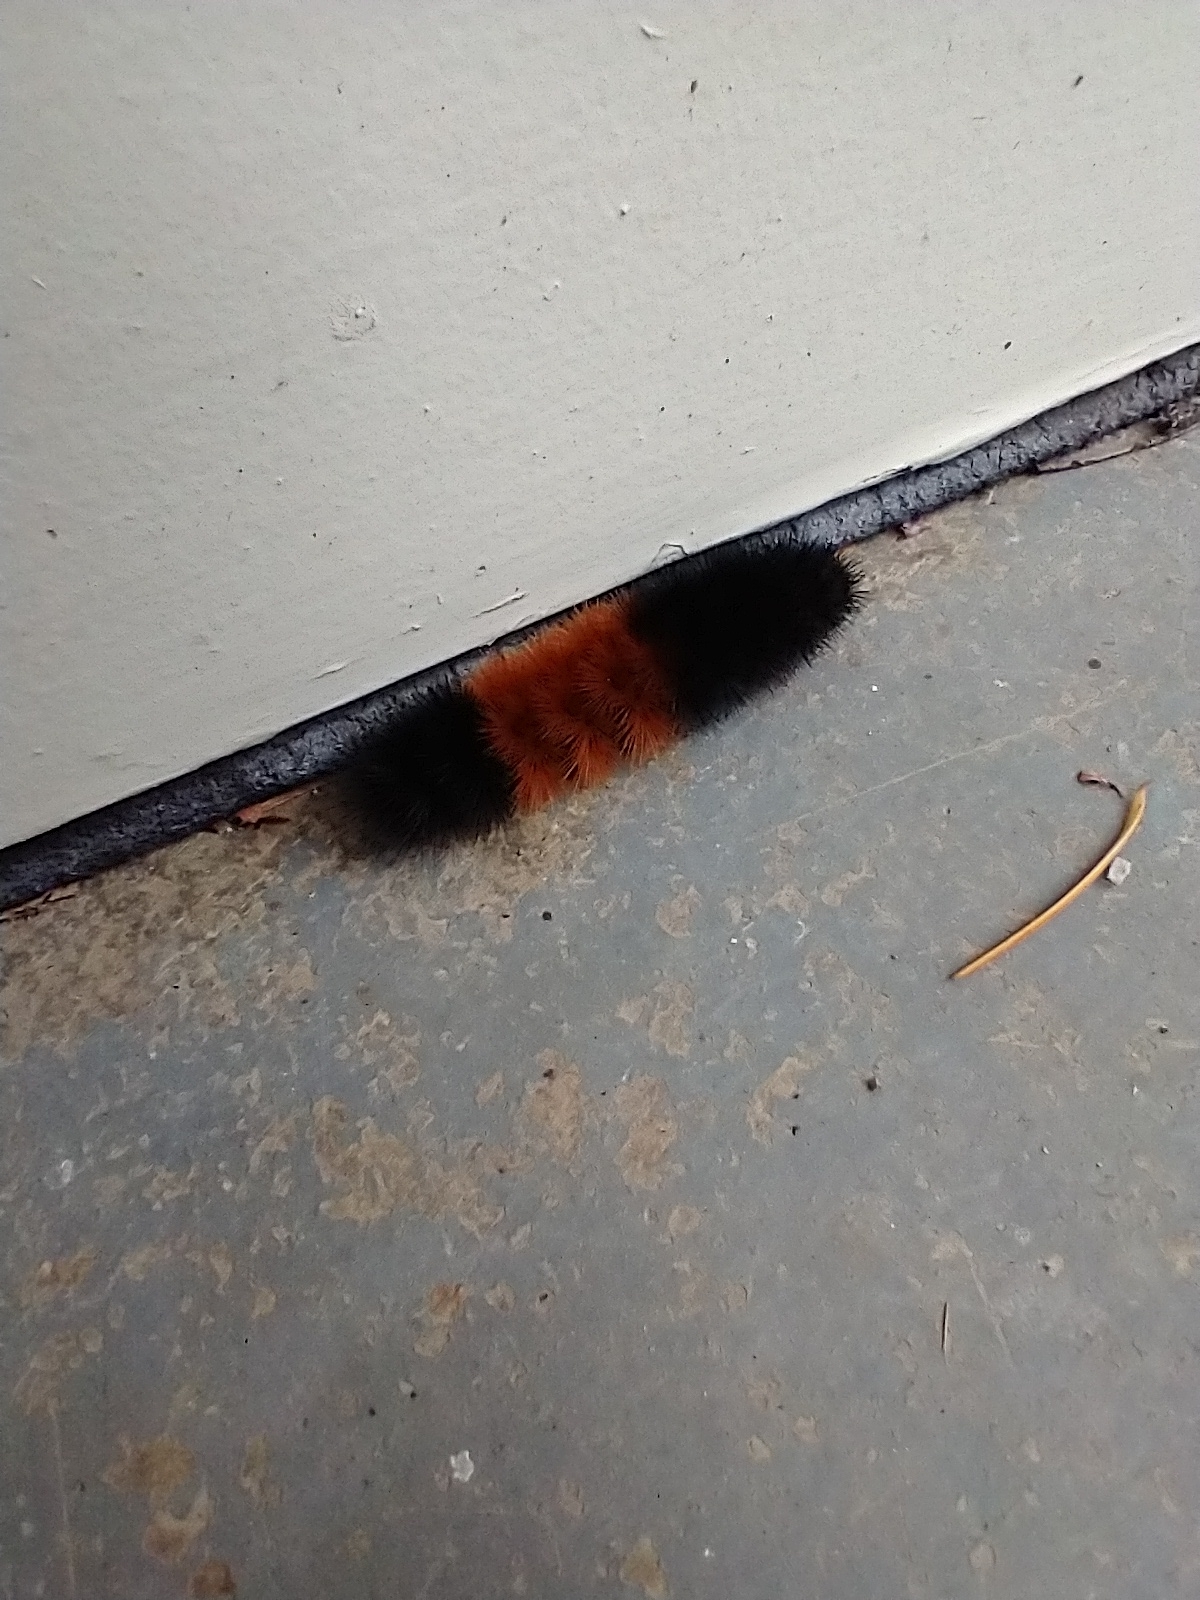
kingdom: Animalia
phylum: Arthropoda
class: Insecta
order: Lepidoptera
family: Erebidae
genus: Pyrrharctia
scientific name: Pyrrharctia isabella
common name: Isabella tiger moth
